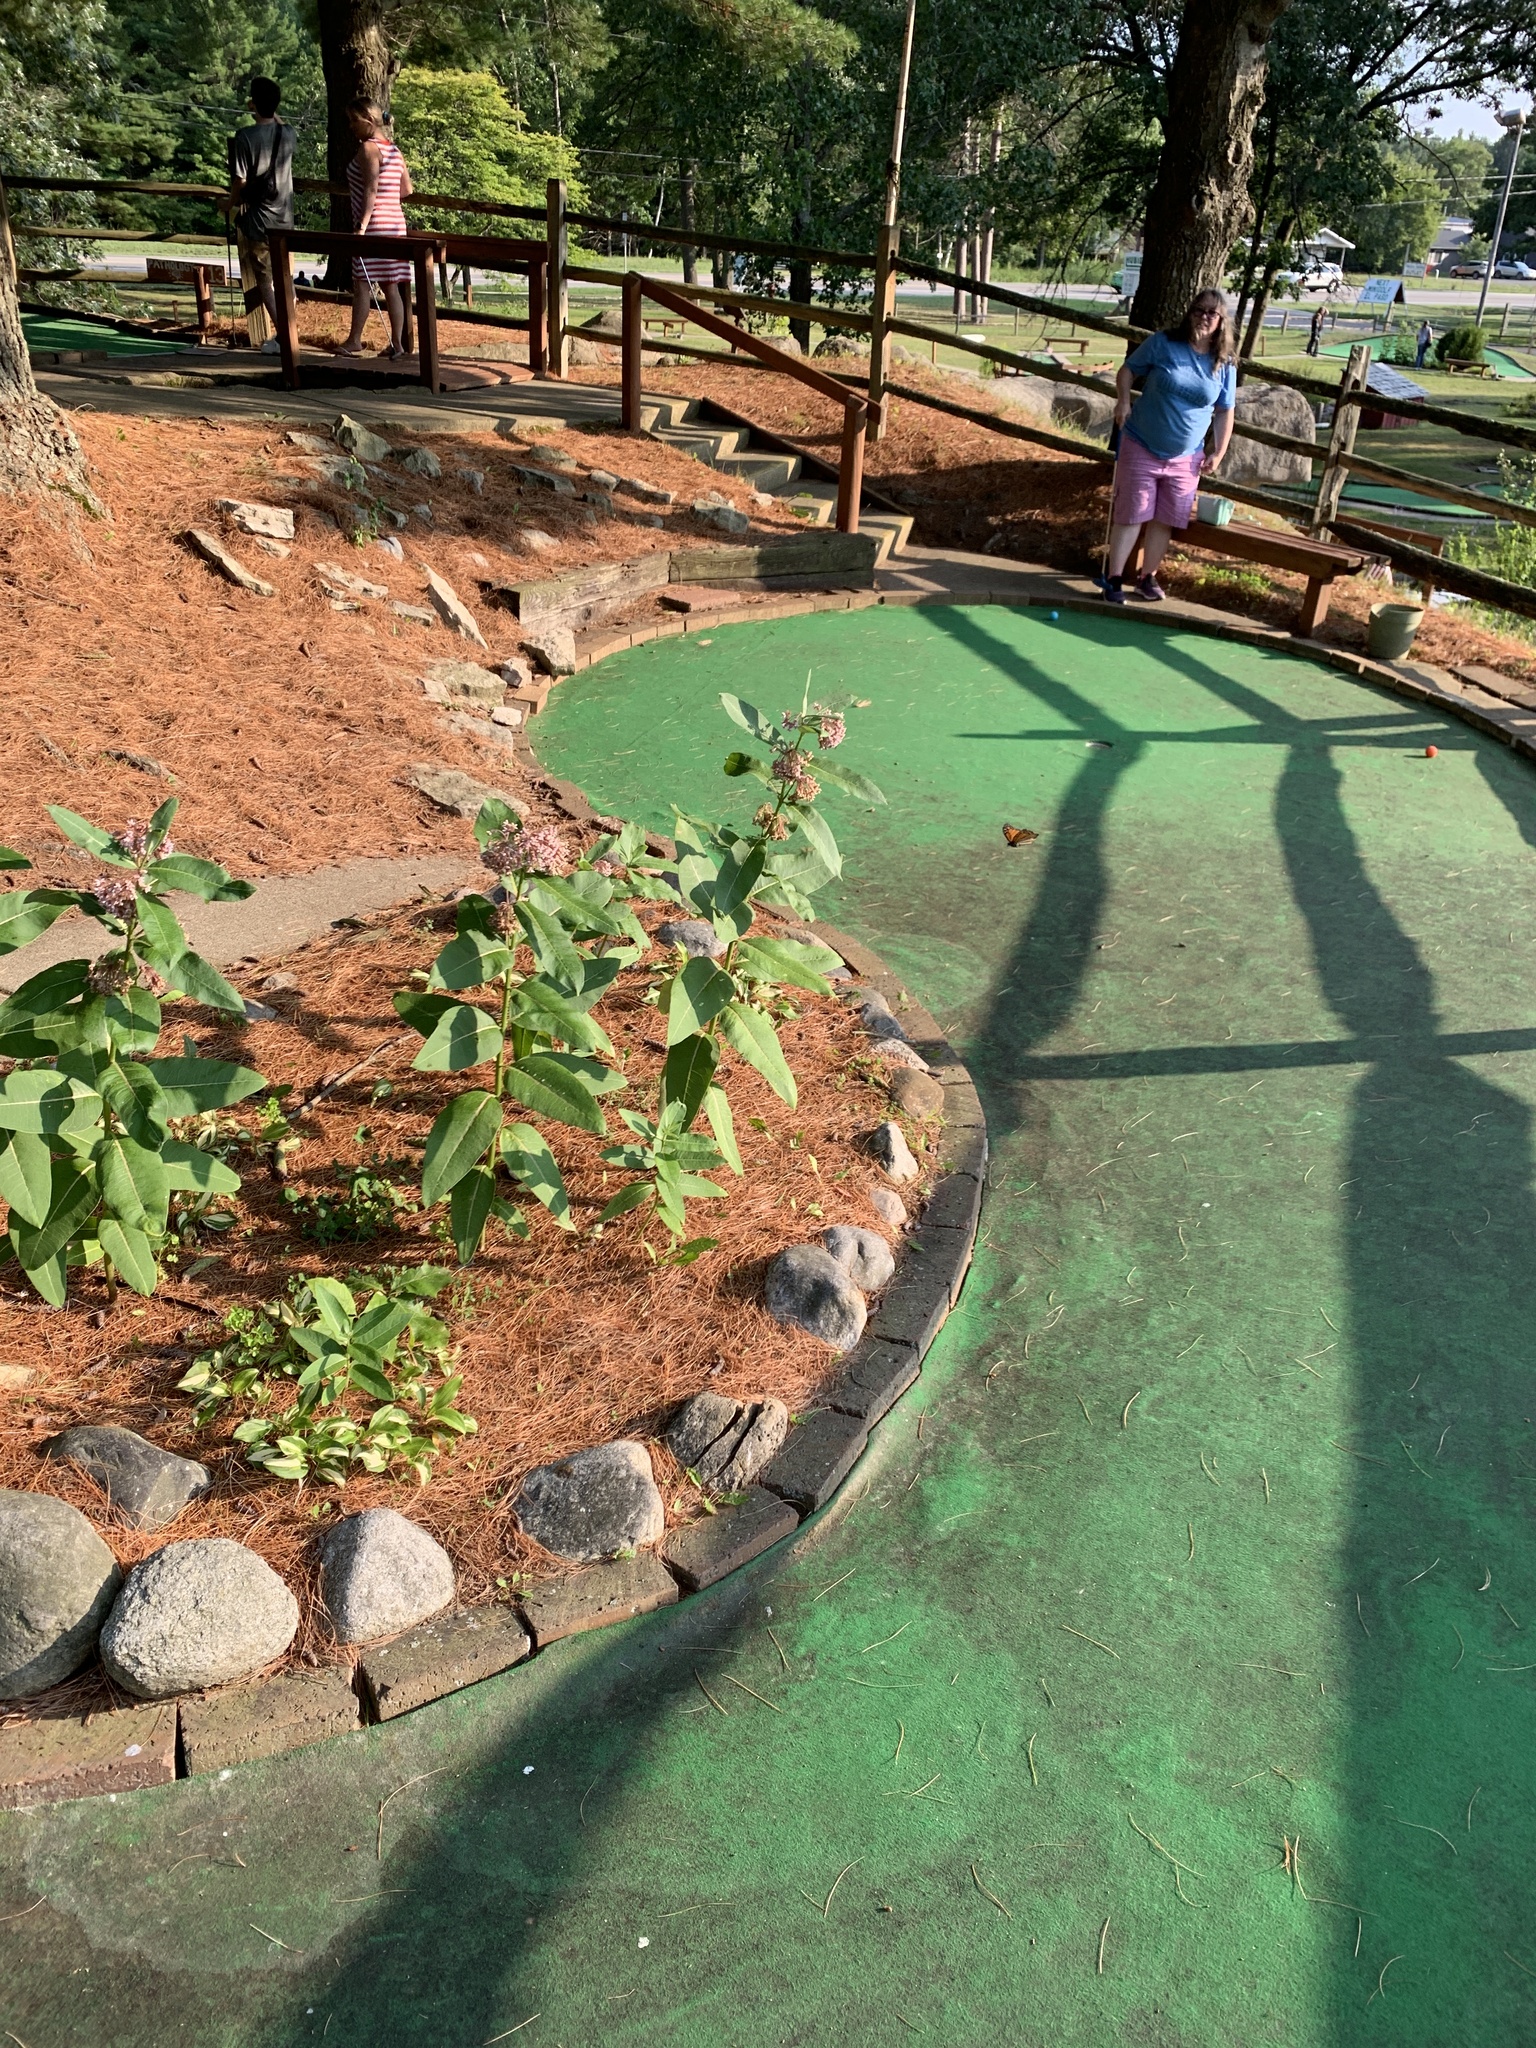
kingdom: Animalia
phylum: Arthropoda
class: Insecta
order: Lepidoptera
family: Nymphalidae
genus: Danaus
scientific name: Danaus plexippus
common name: Monarch
